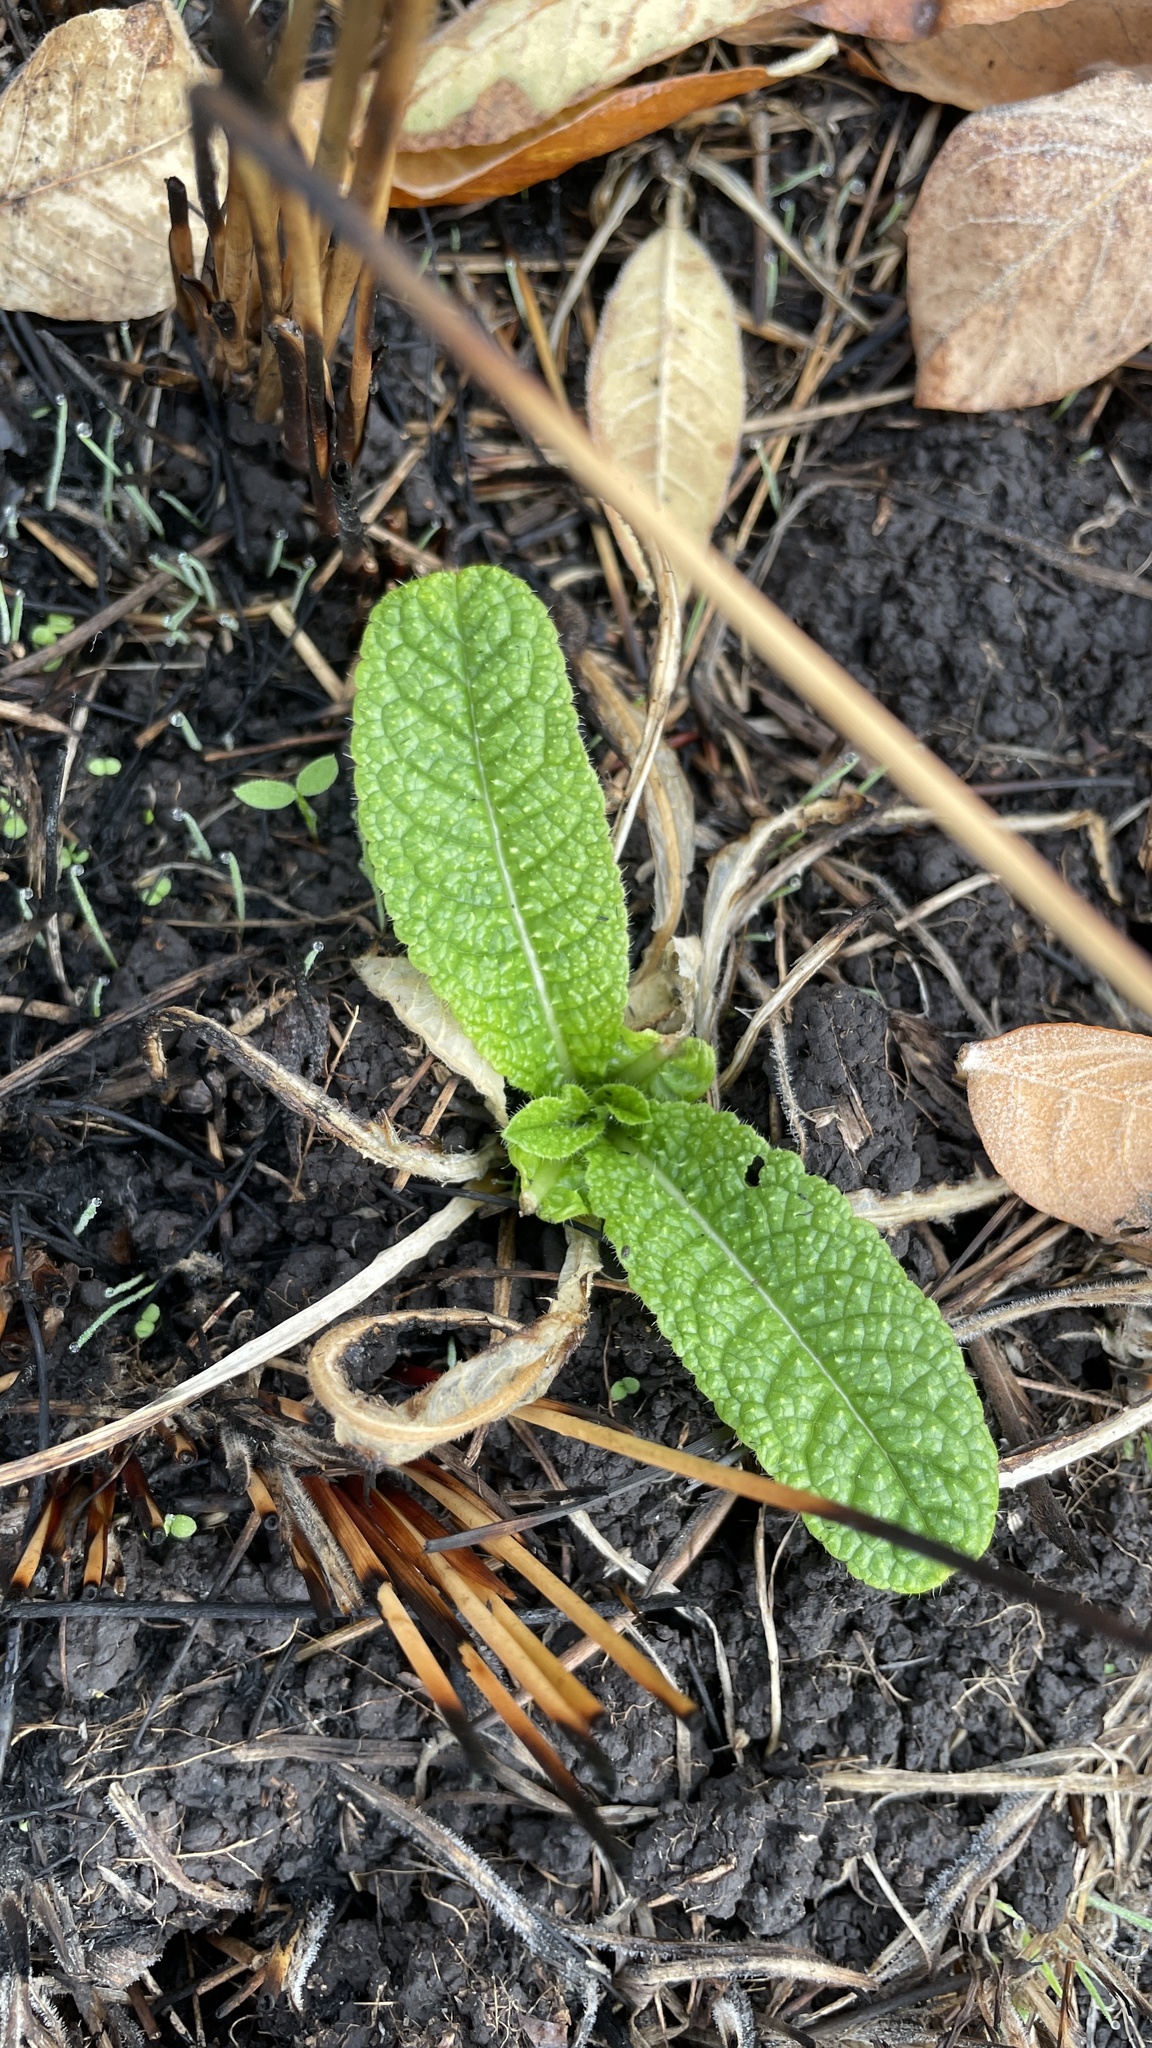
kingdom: Plantae
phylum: Tracheophyta
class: Magnoliopsida
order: Dipsacales
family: Caprifoliaceae
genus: Dipsacus
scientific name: Dipsacus fullonum
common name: Teasel
